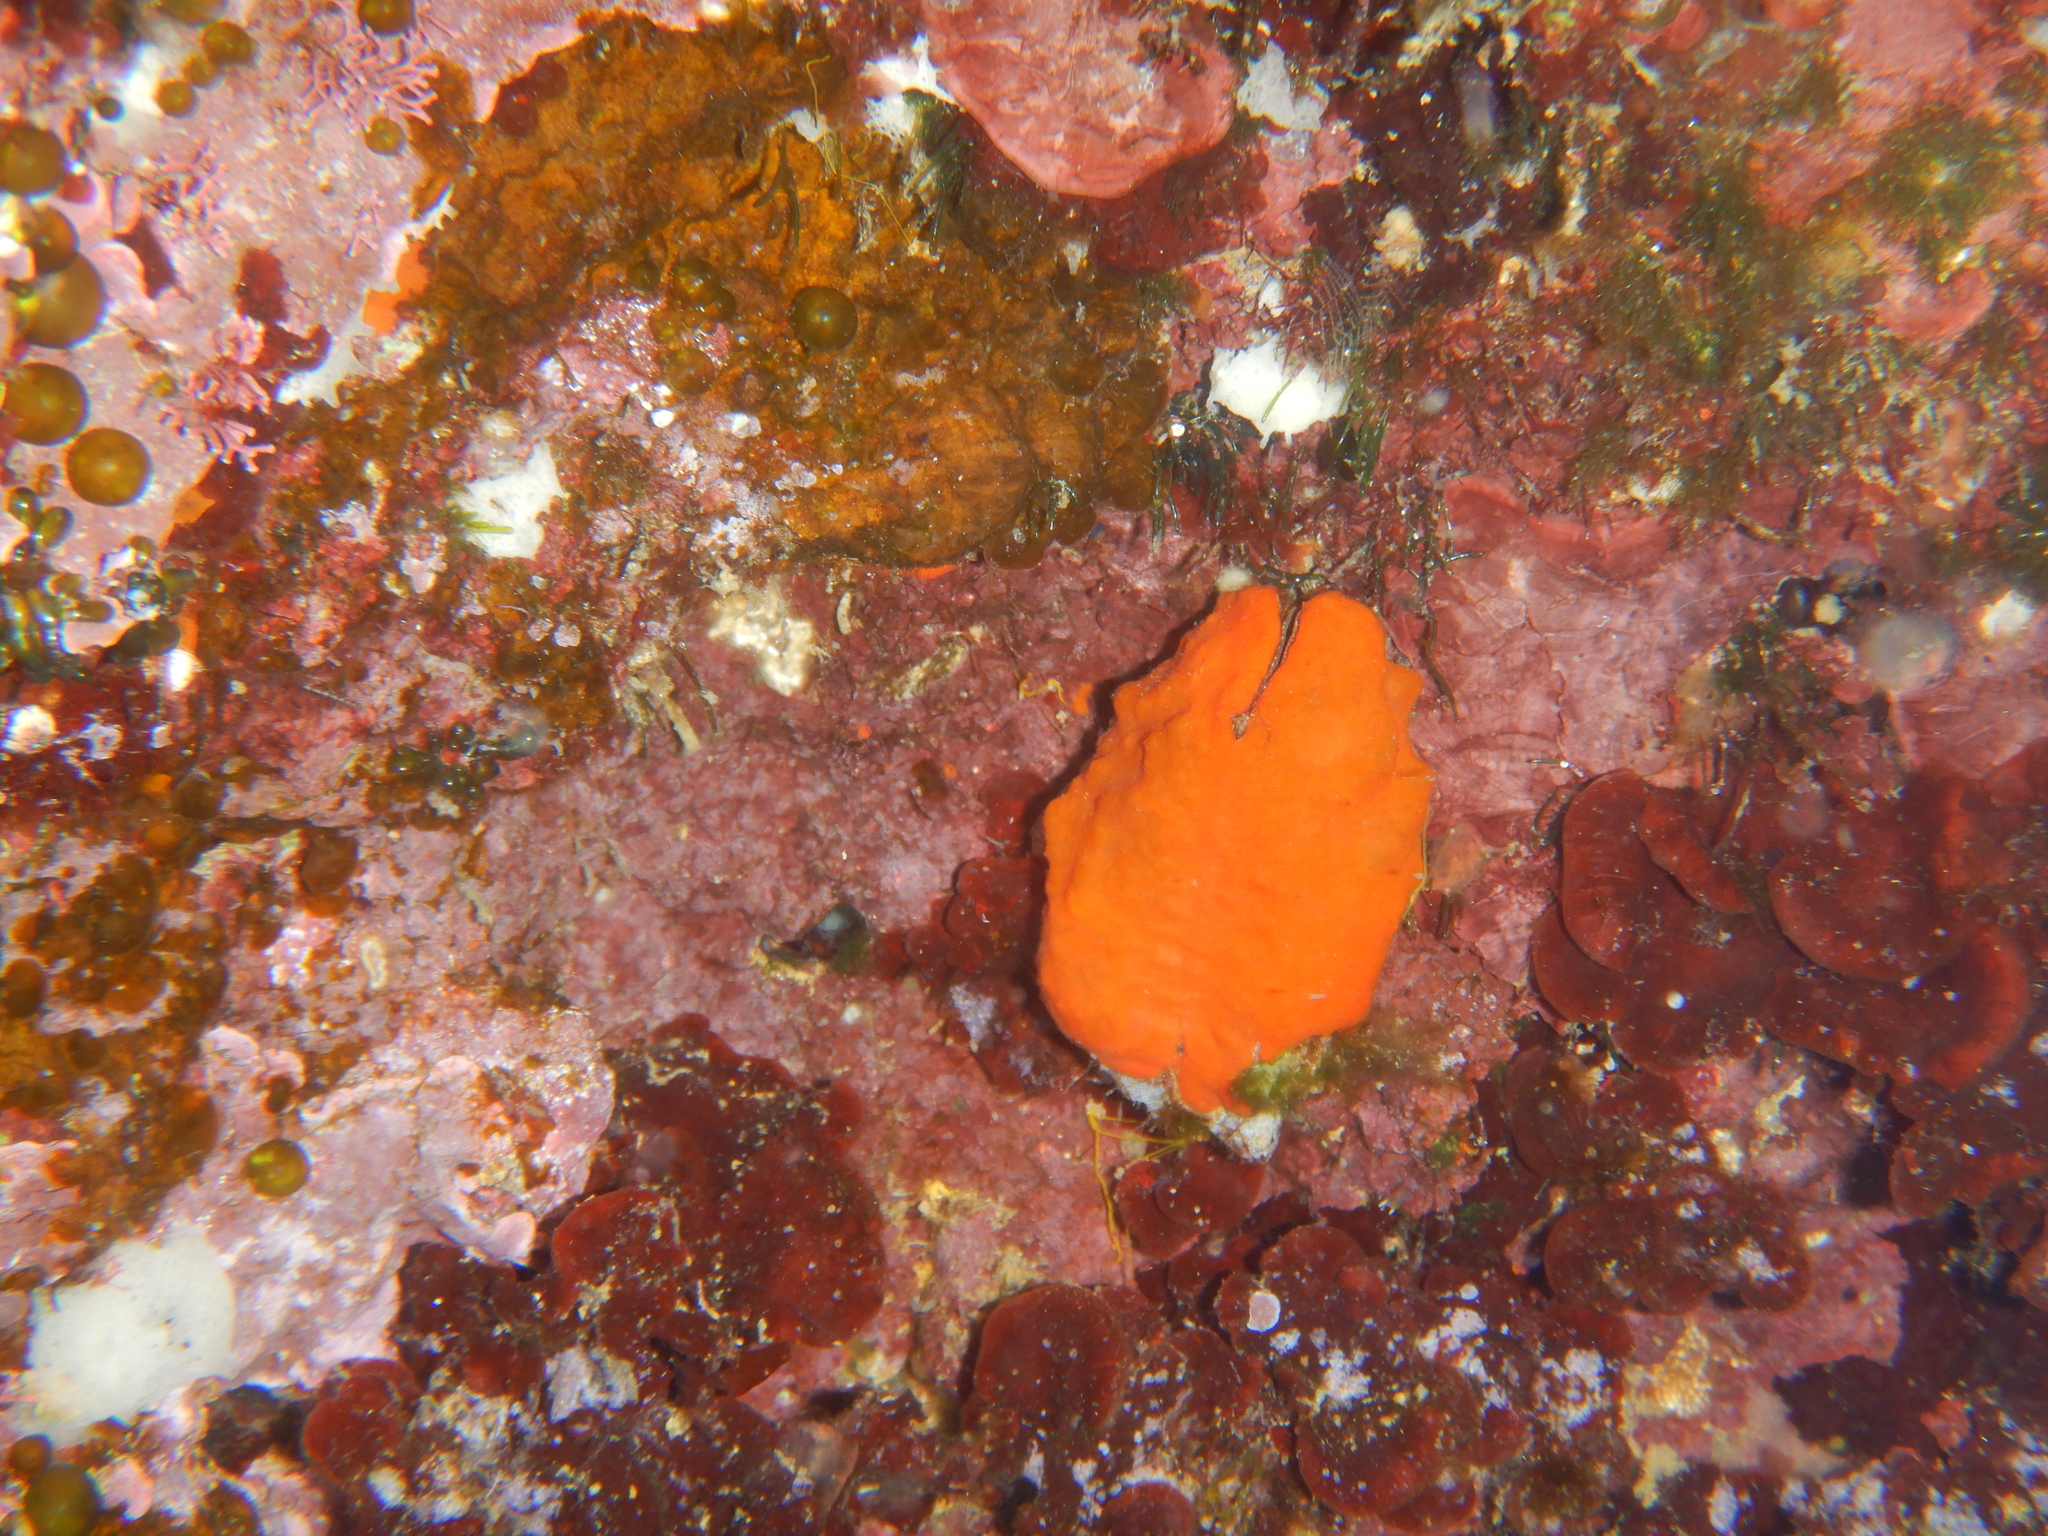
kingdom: Animalia
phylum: Porifera
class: Demospongiae
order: Poecilosclerida
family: Crambeidae
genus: Crambe
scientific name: Crambe crambe
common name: Orange-red encrusting sponge
